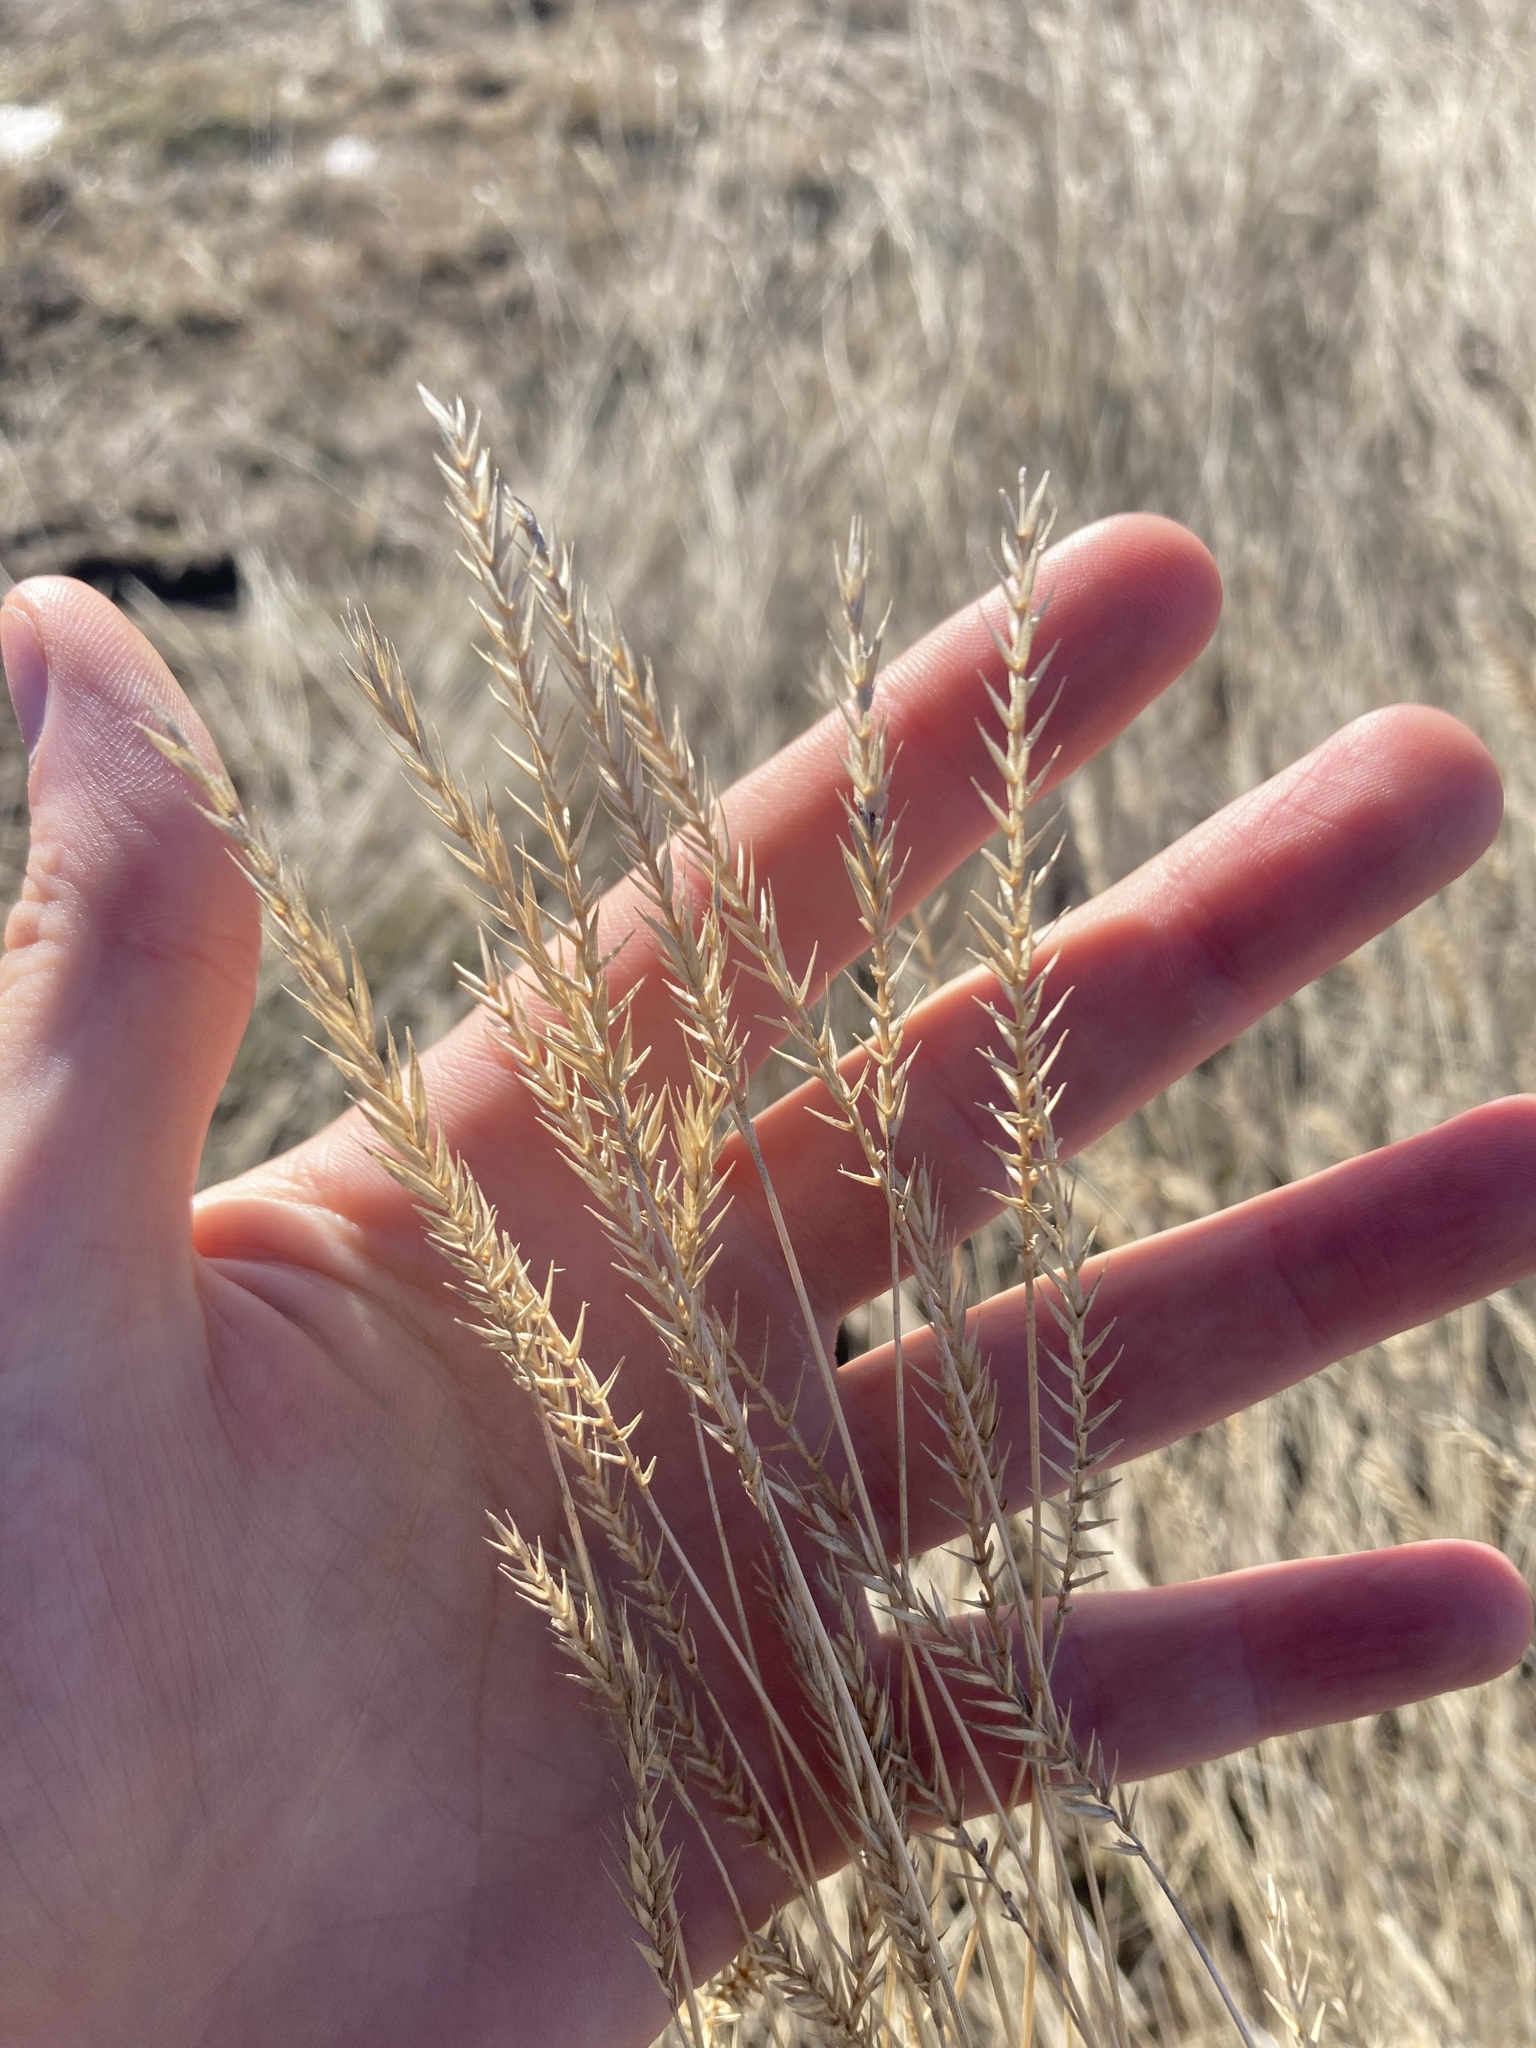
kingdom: Plantae
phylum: Tracheophyta
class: Liliopsida
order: Poales
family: Poaceae
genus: Agropyron
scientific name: Agropyron cristatum
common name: Crested wheatgrass
